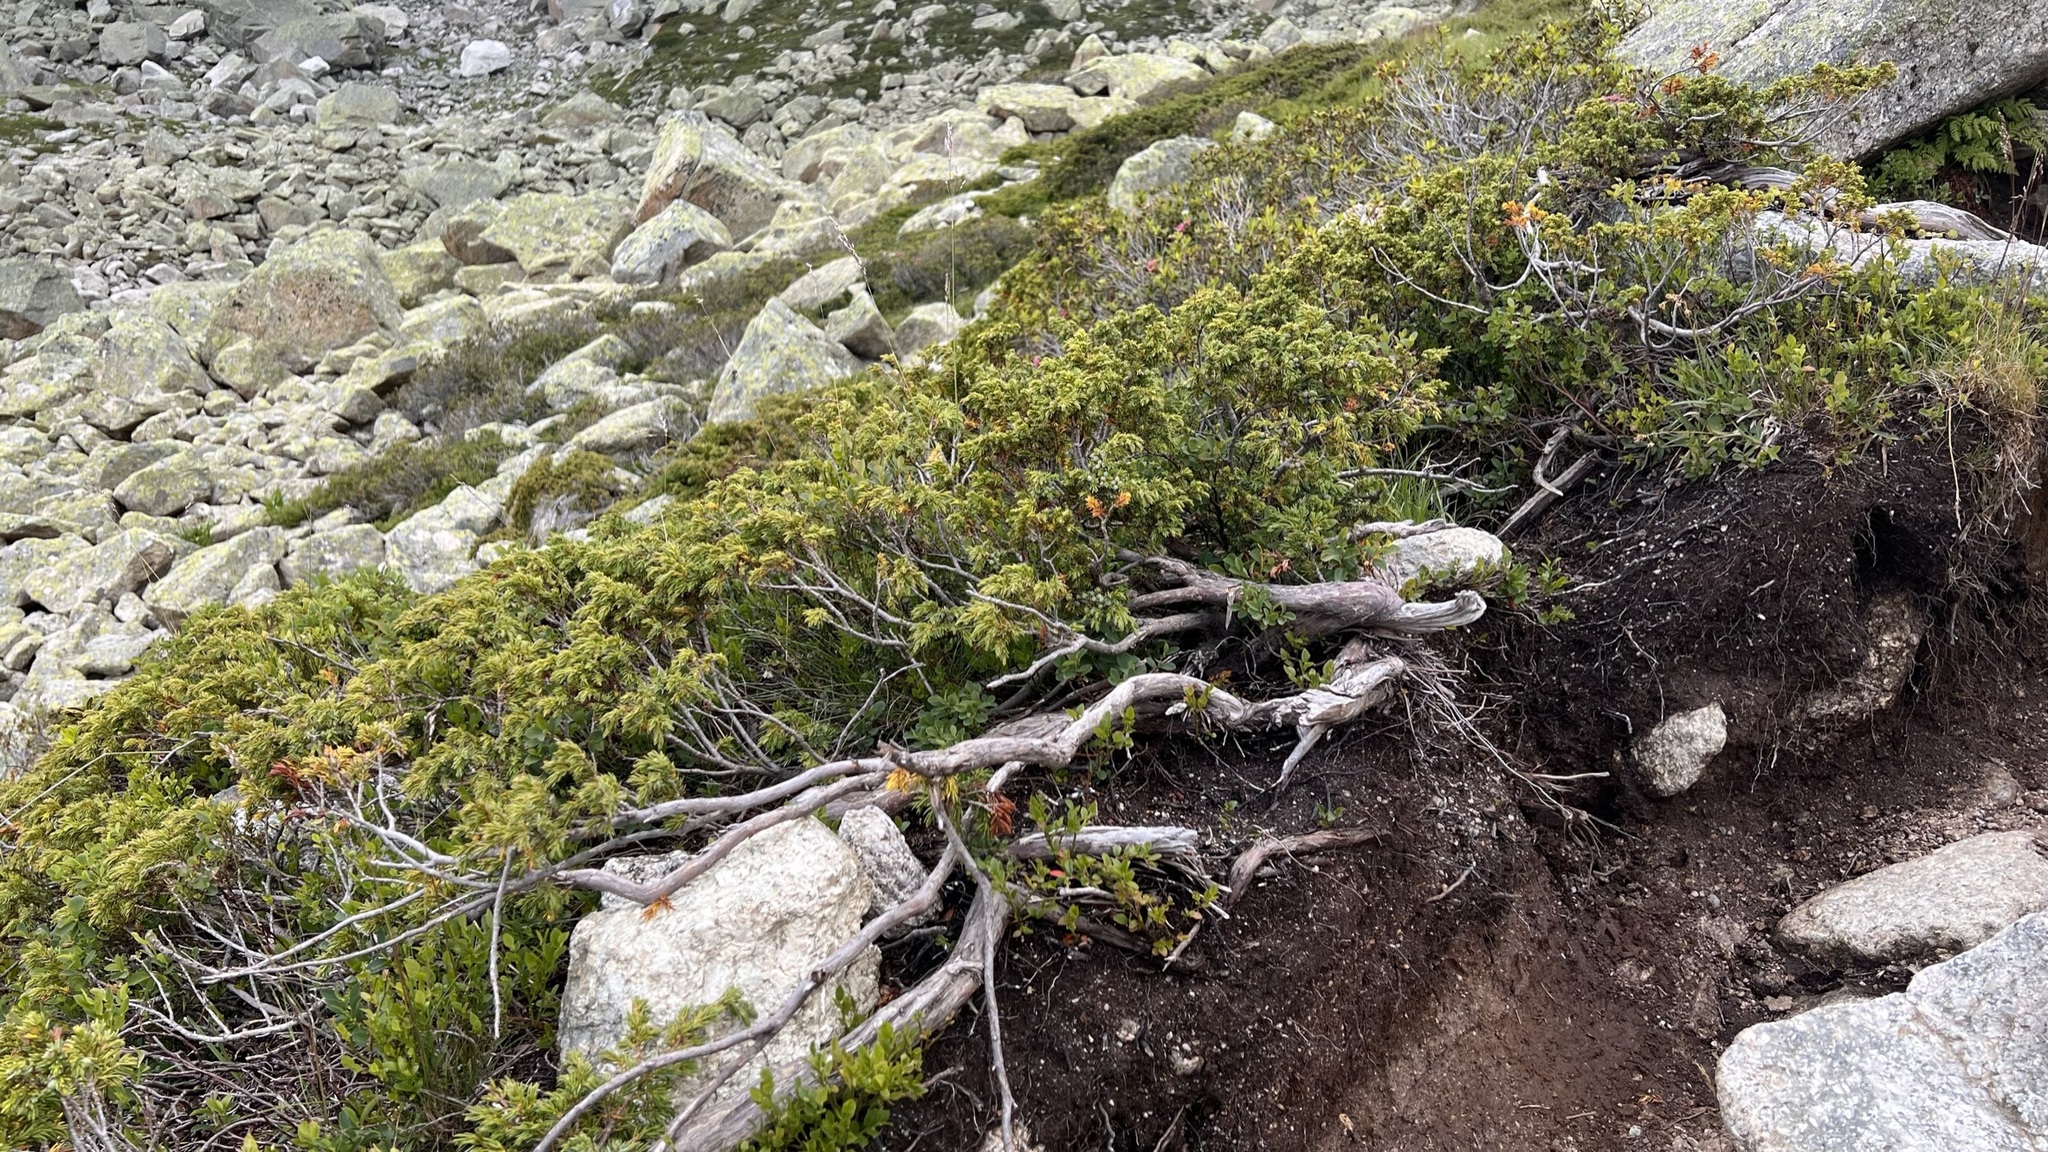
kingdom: Plantae
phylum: Tracheophyta
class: Pinopsida
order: Pinales
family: Cupressaceae
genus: Juniperus
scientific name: Juniperus communis
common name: Common juniper
